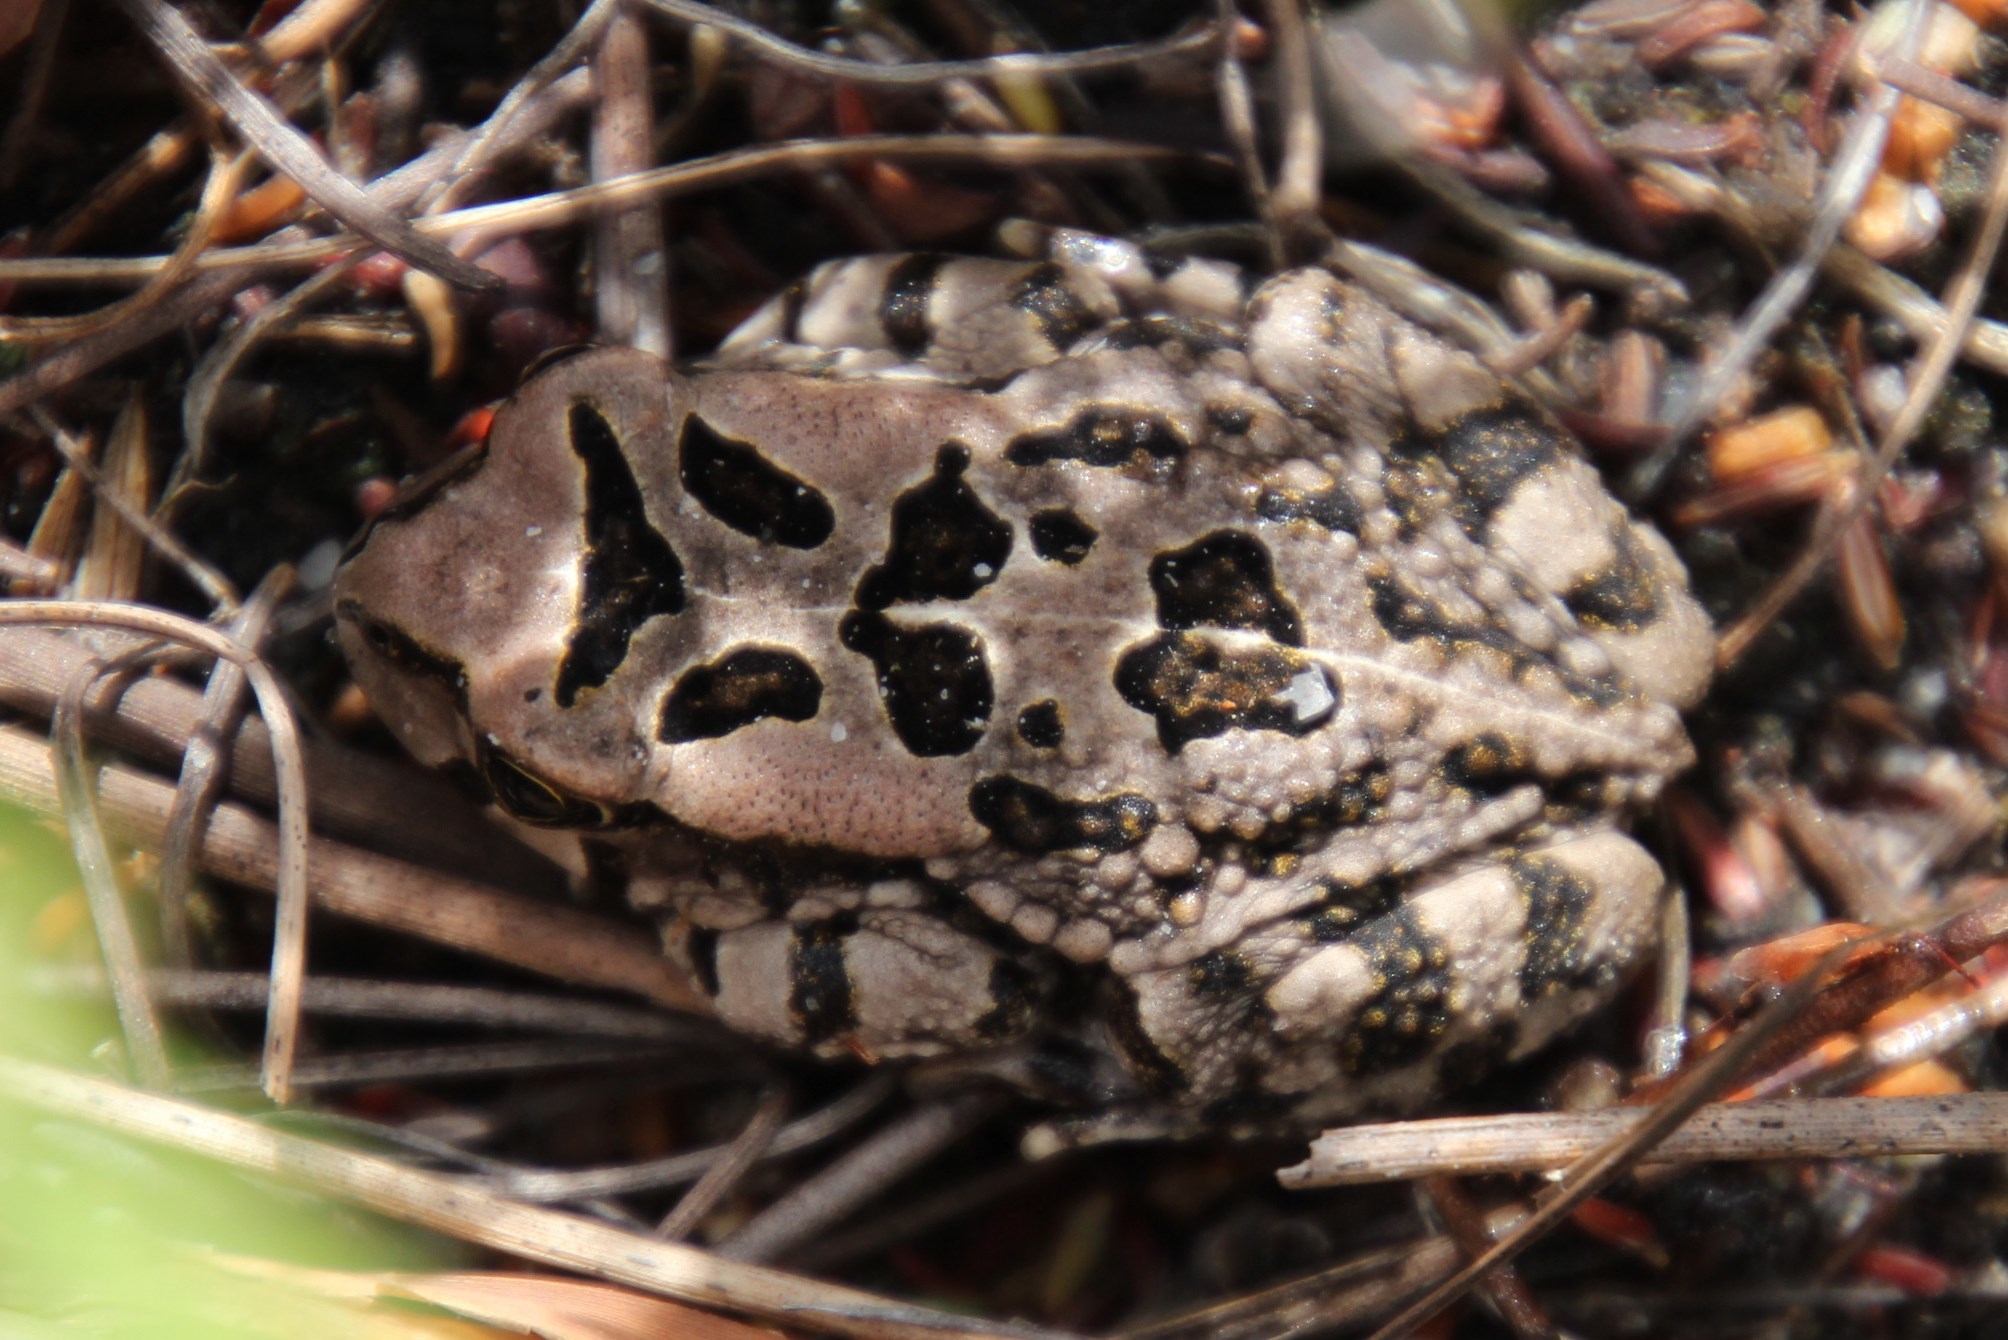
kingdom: Animalia
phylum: Chordata
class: Amphibia
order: Anura
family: Bufonidae
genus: Sclerophrys
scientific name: Sclerophrys capensis
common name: Ranger’s toad
